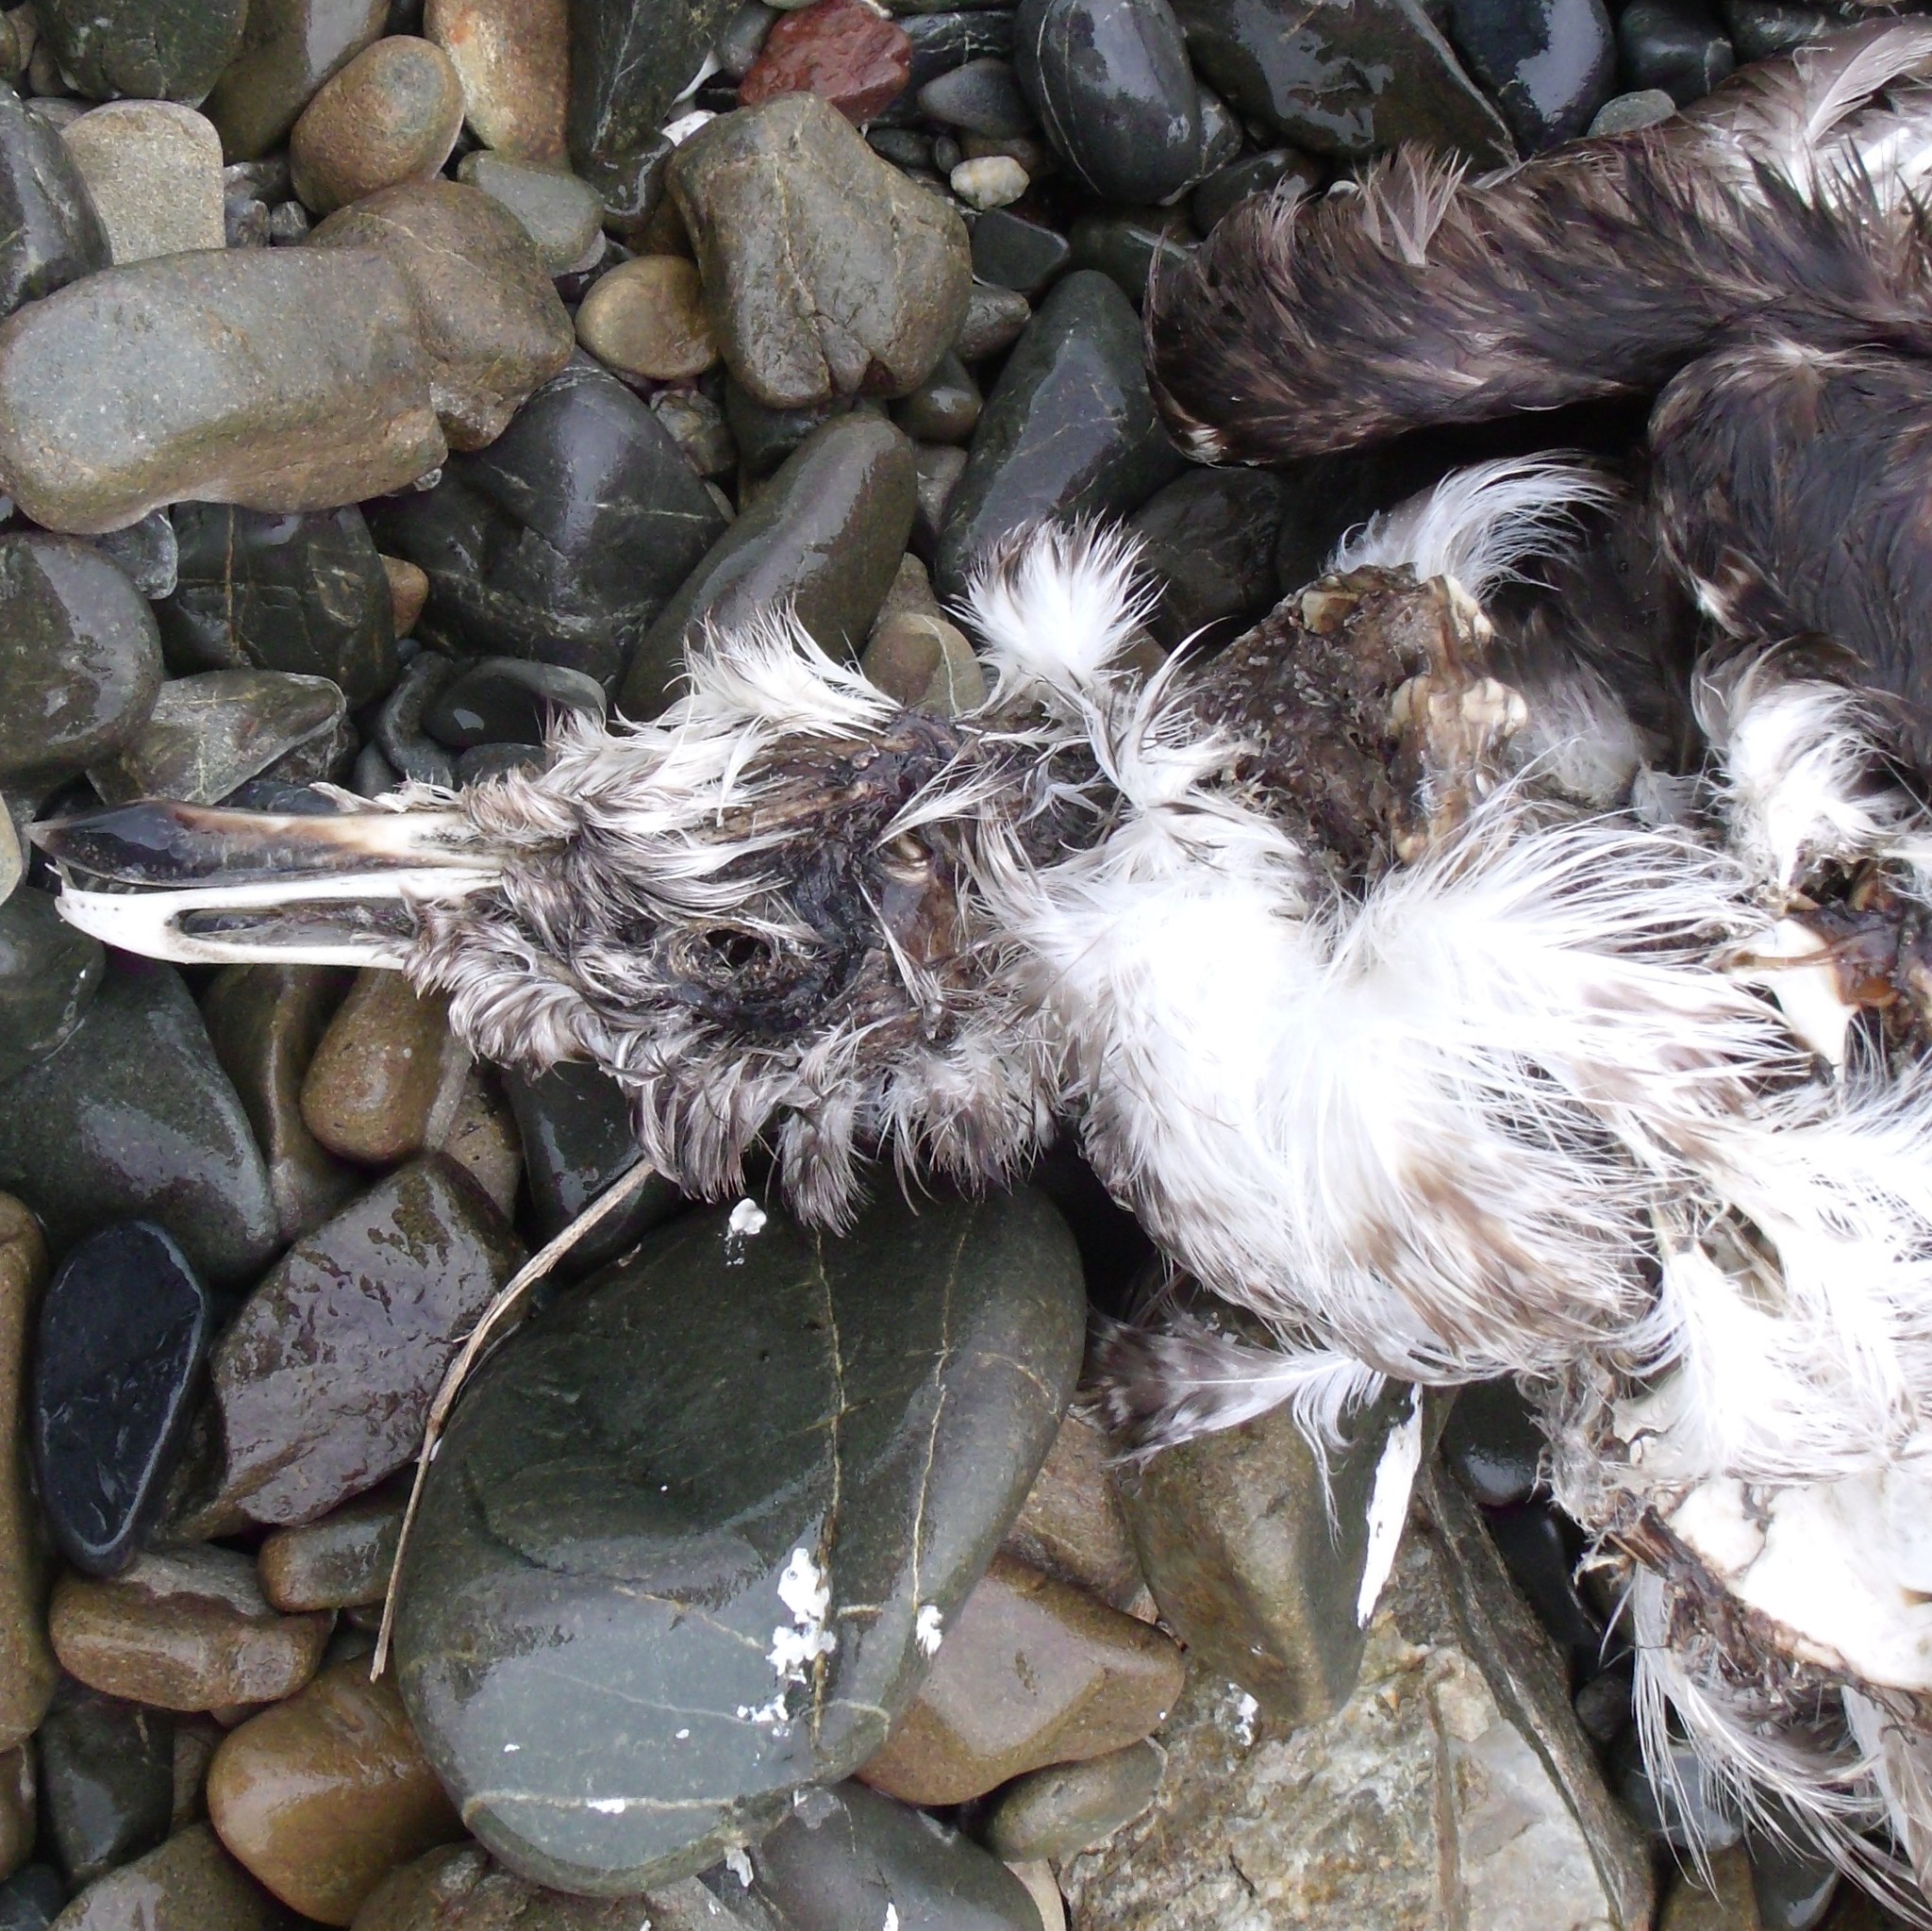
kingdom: Animalia
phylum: Chordata
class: Aves
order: Charadriiformes
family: Laridae
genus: Larus
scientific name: Larus dominicanus
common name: Kelp gull
